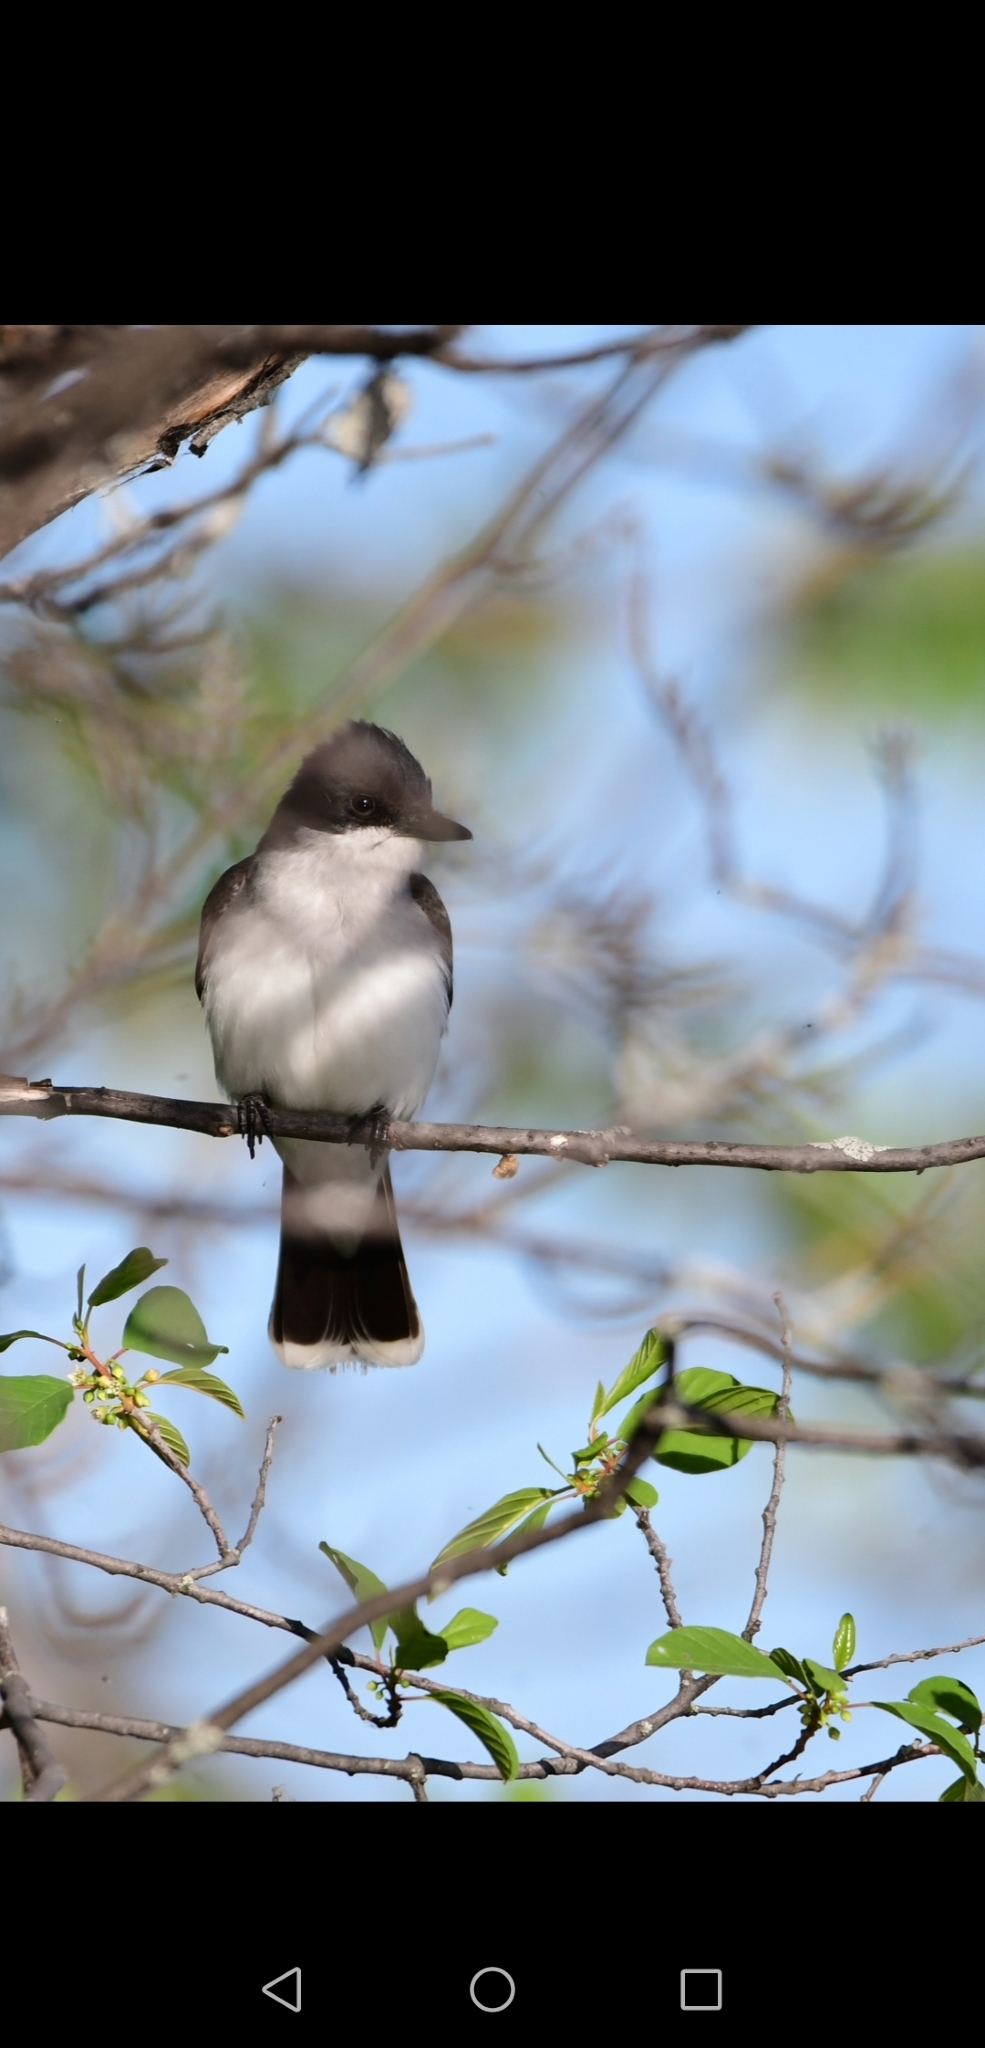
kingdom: Animalia
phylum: Chordata
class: Aves
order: Passeriformes
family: Tyrannidae
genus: Tyrannus
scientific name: Tyrannus tyrannus
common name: Eastern kingbird
